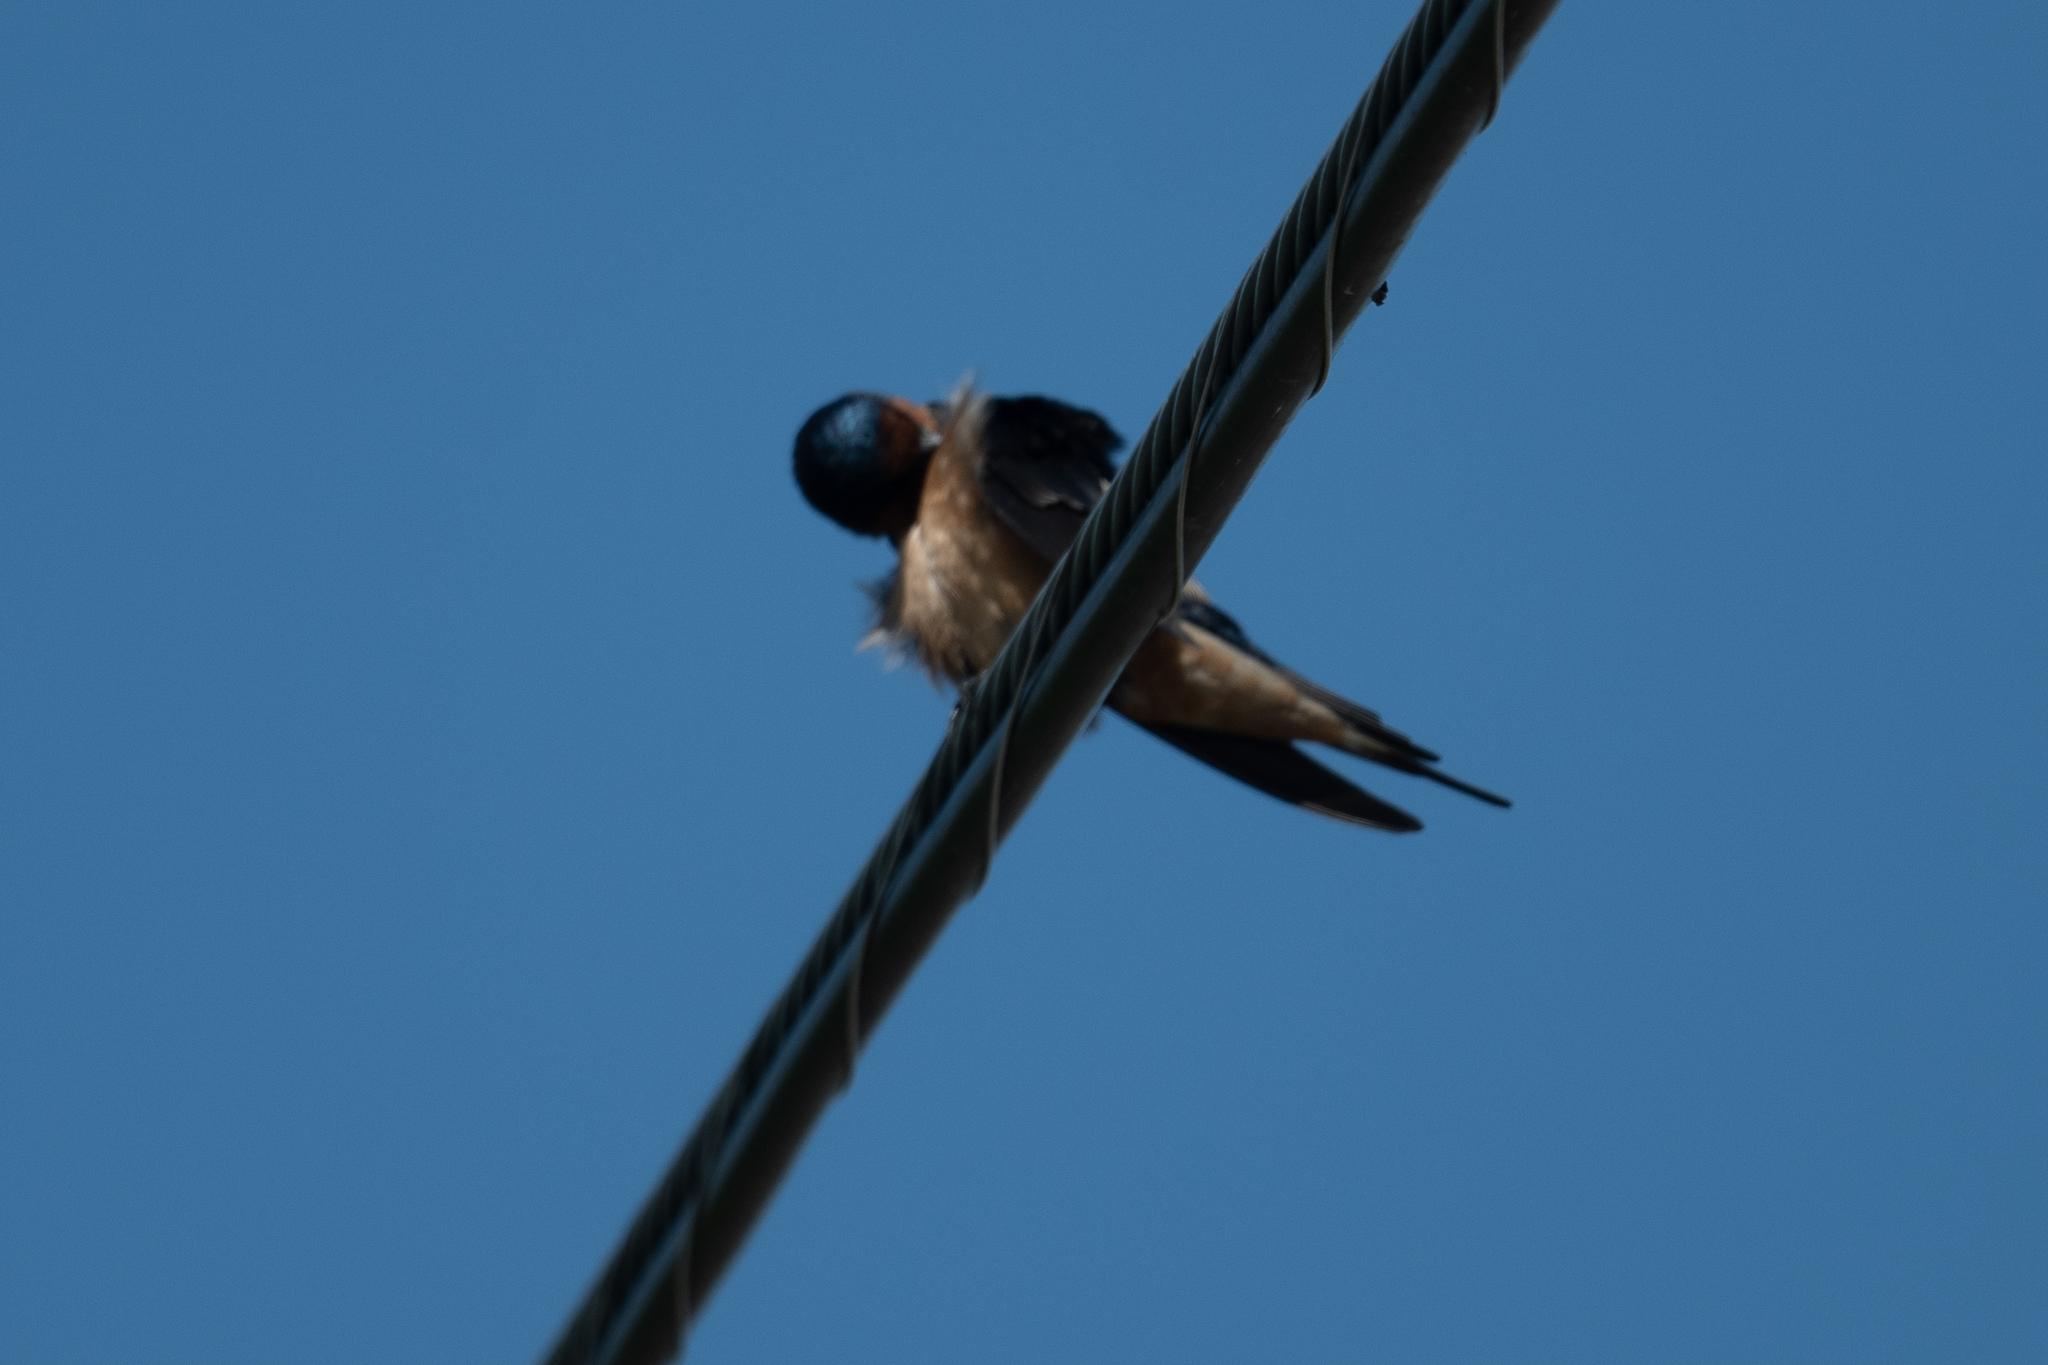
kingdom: Animalia
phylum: Chordata
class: Aves
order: Passeriformes
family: Hirundinidae
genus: Hirundo
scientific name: Hirundo rustica
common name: Barn swallow
